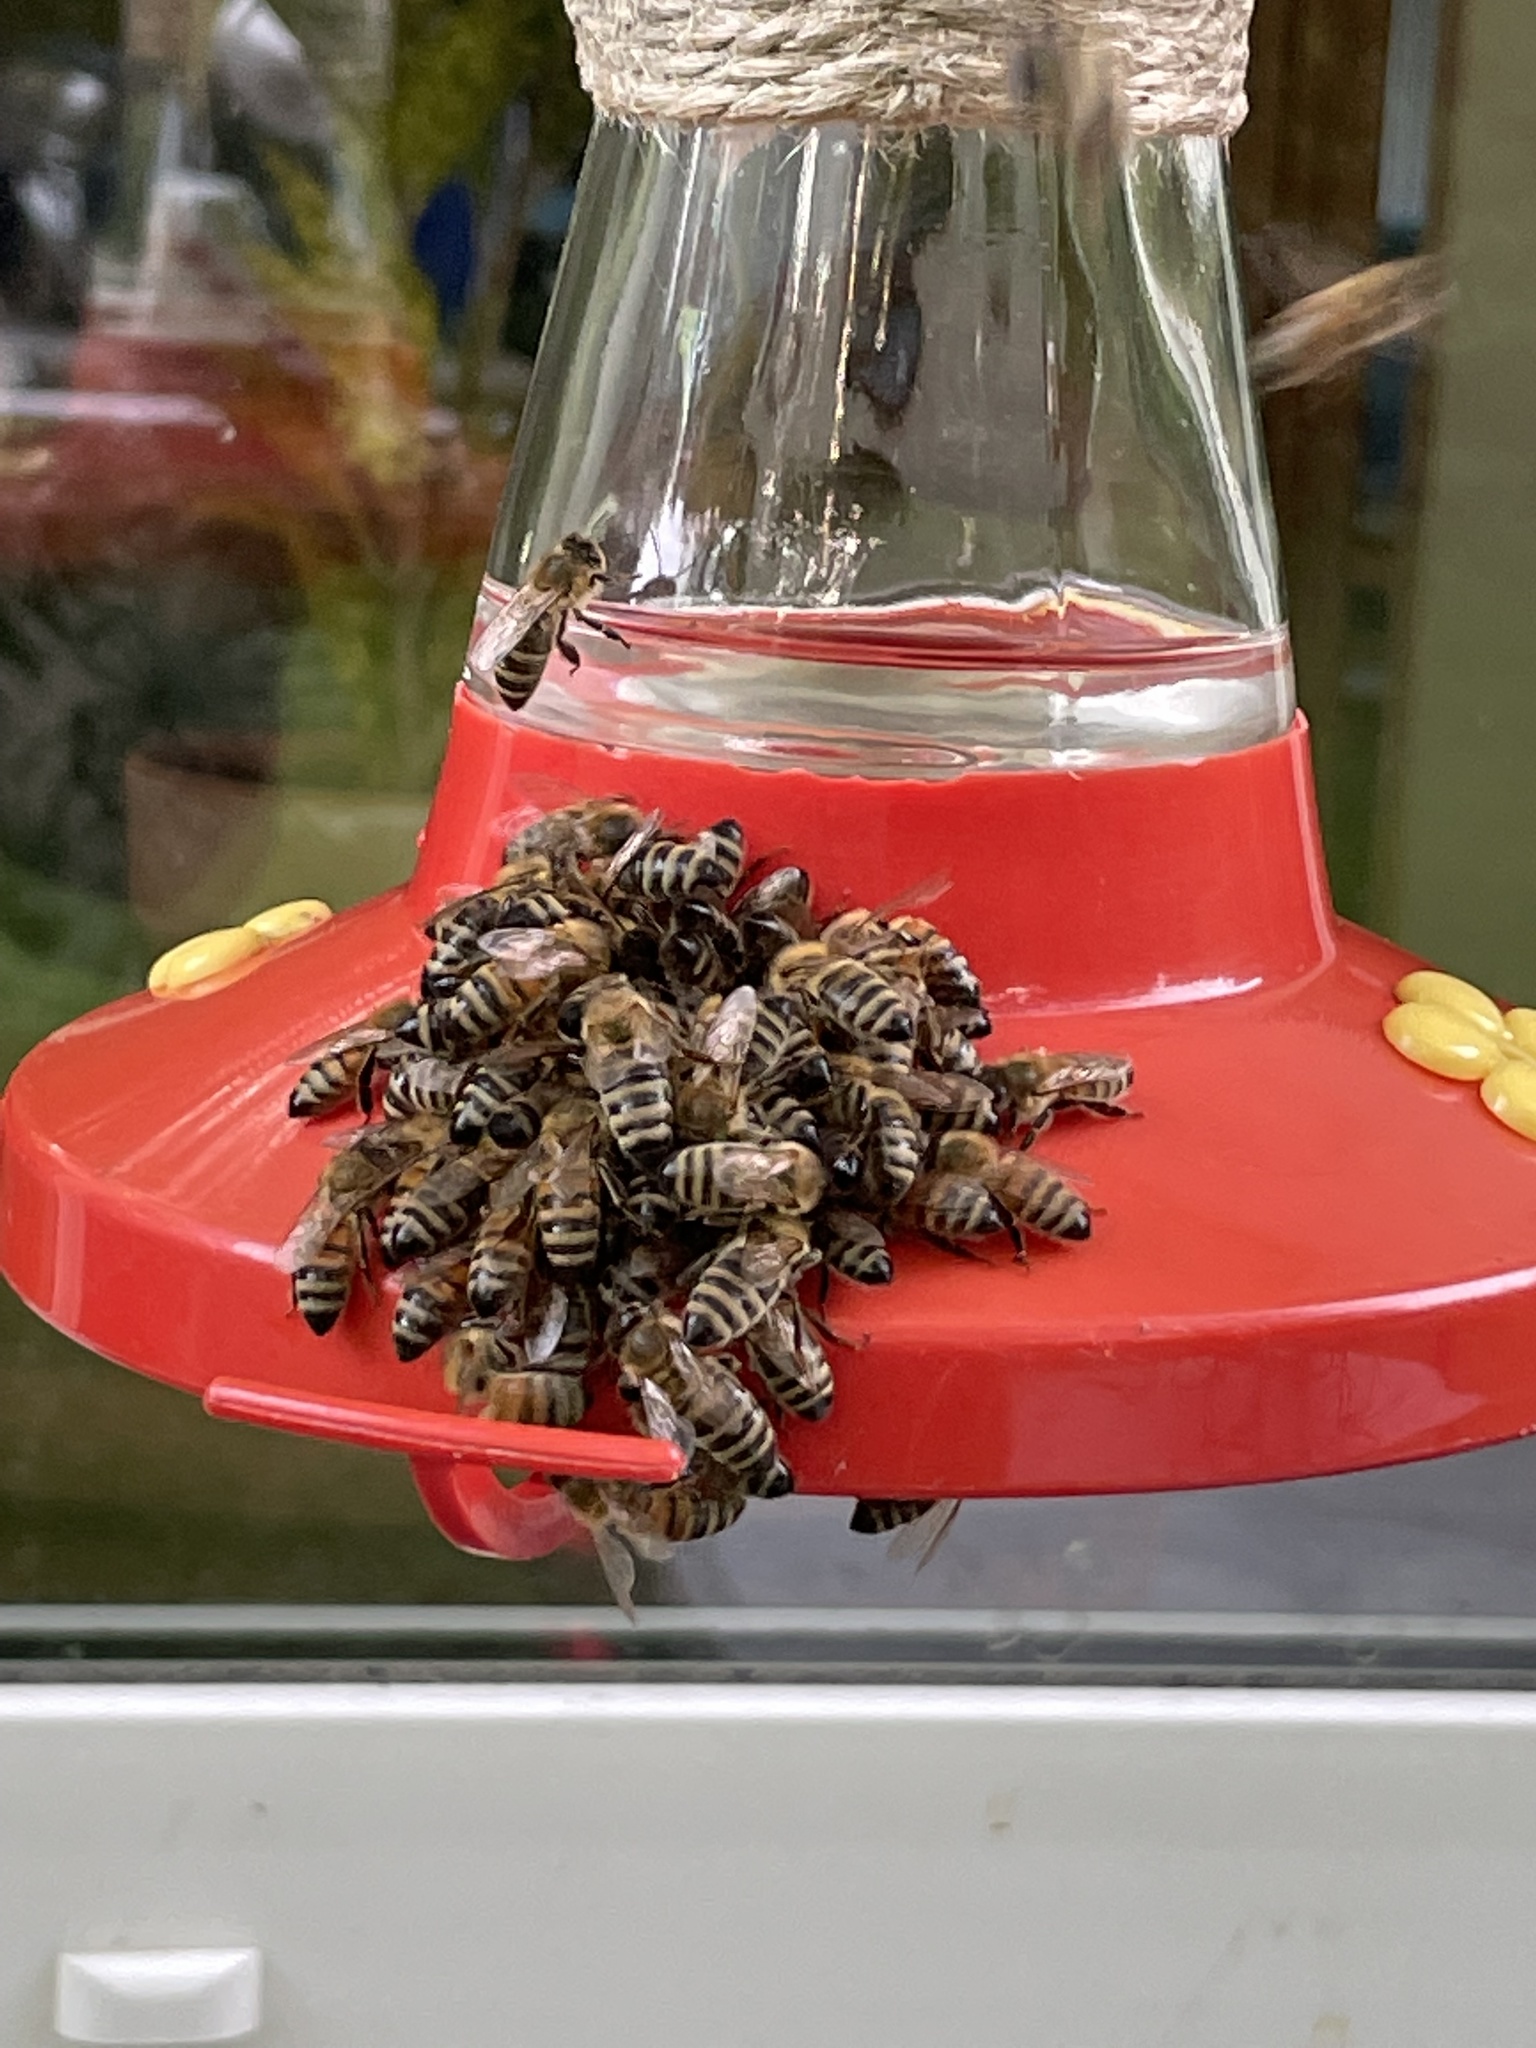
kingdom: Animalia
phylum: Arthropoda
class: Insecta
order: Hymenoptera
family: Apidae
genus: Apis
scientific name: Apis mellifera
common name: Honey bee
